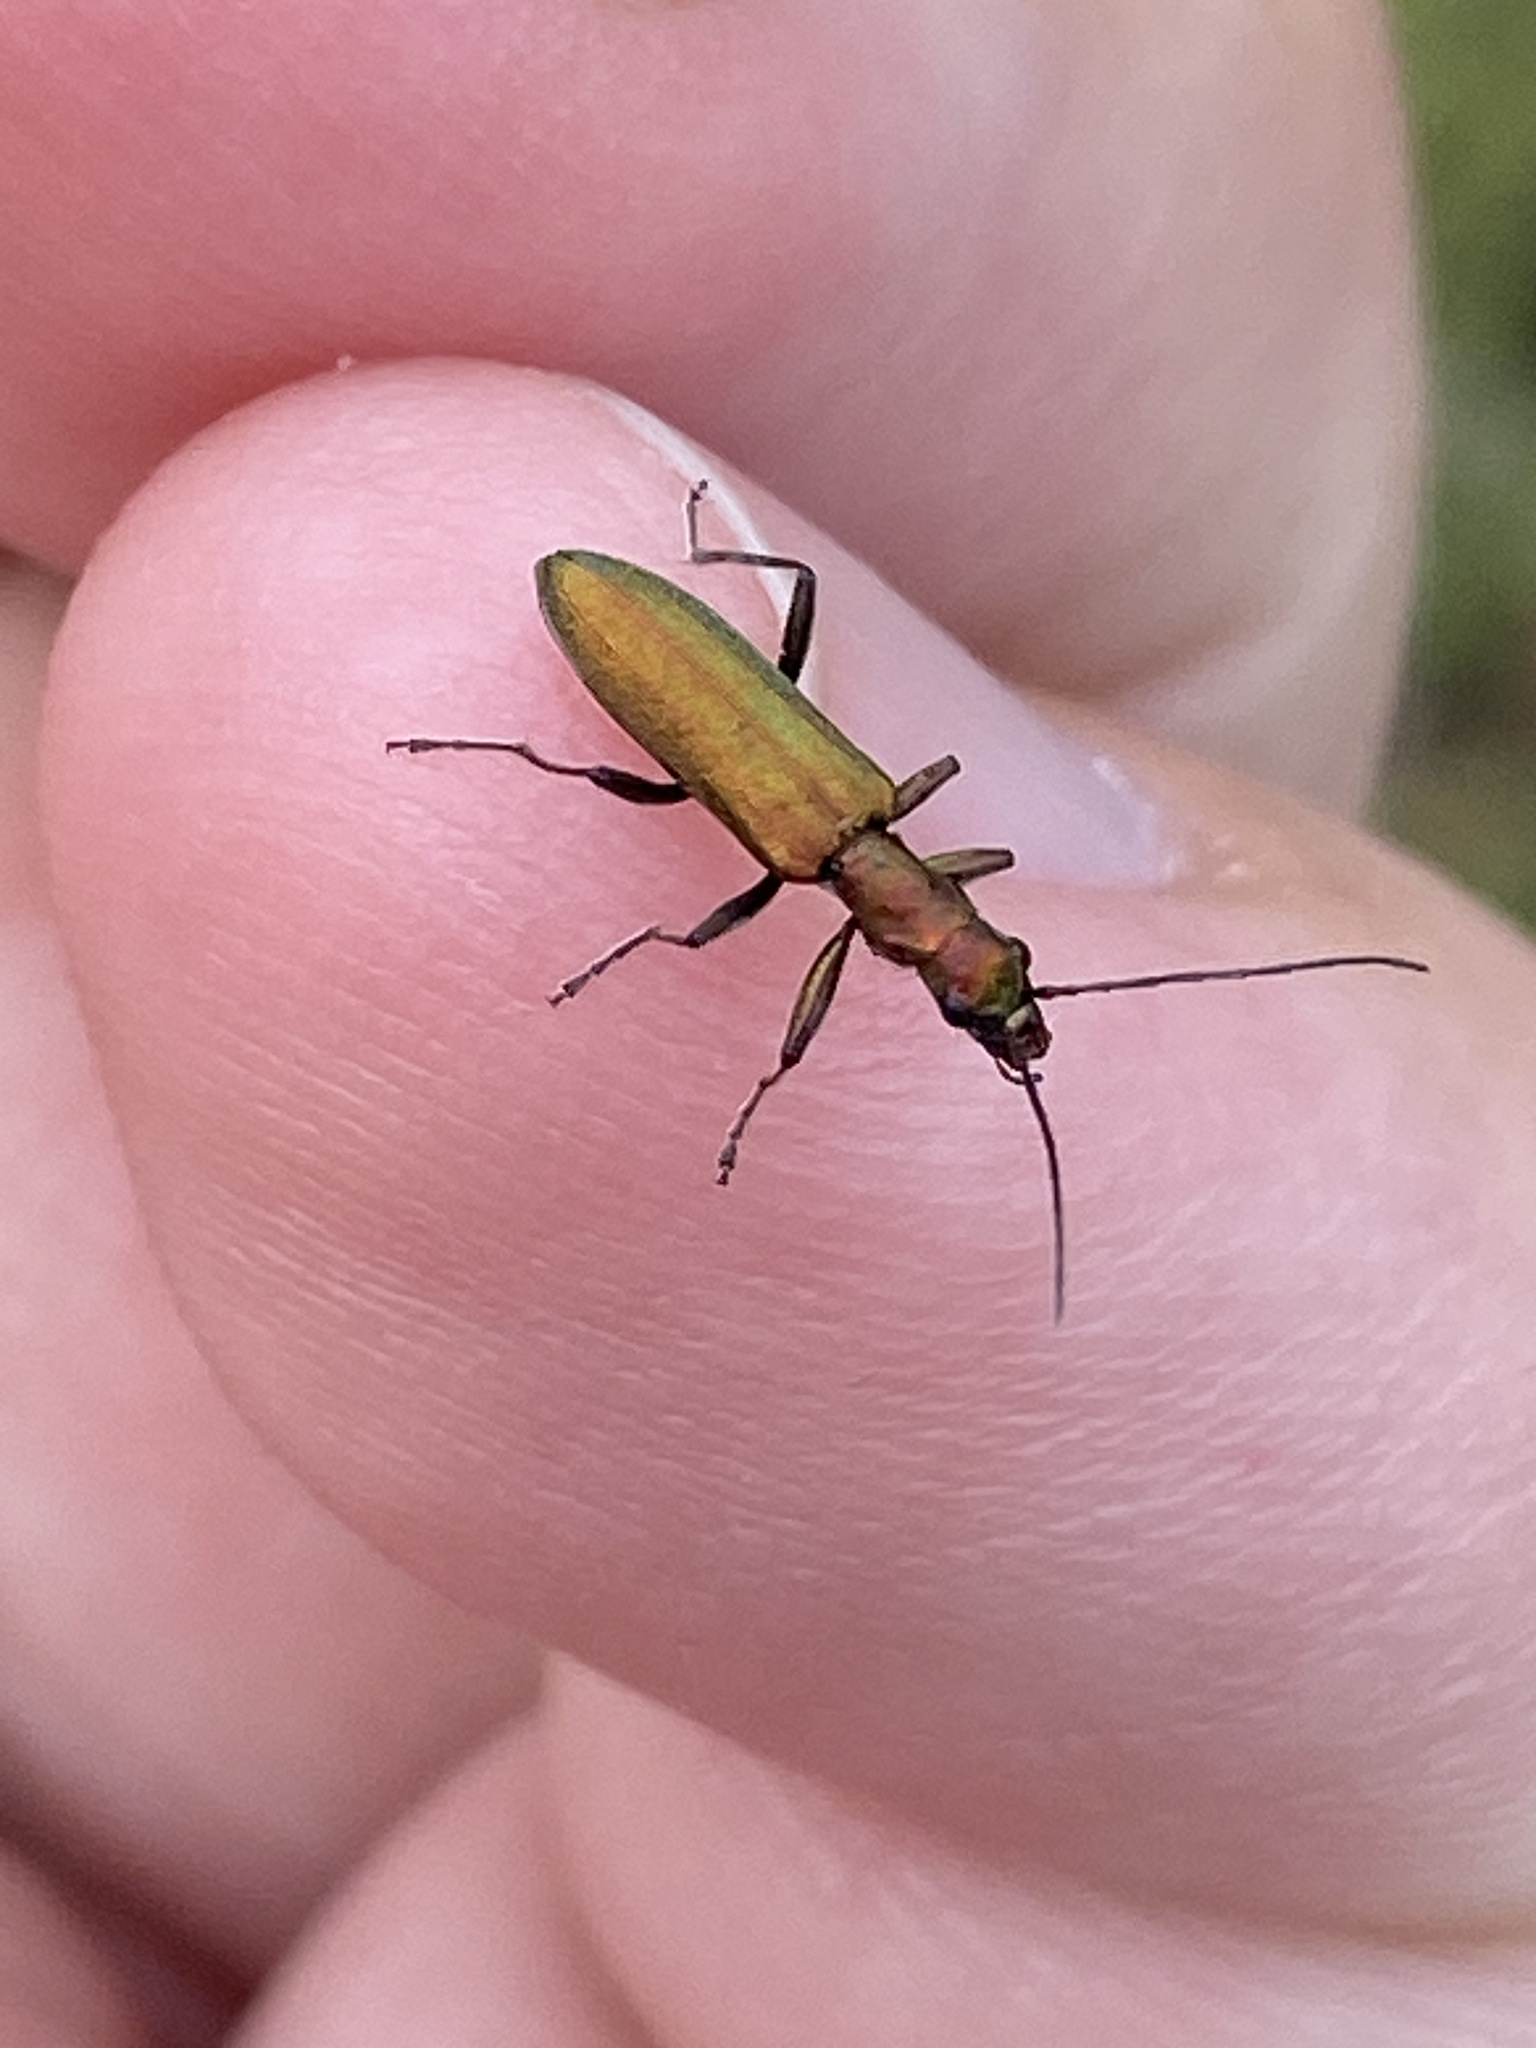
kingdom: Animalia
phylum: Arthropoda
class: Insecta
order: Coleoptera
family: Oedemeridae
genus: Chrysanthia
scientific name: Chrysanthia viridissima
